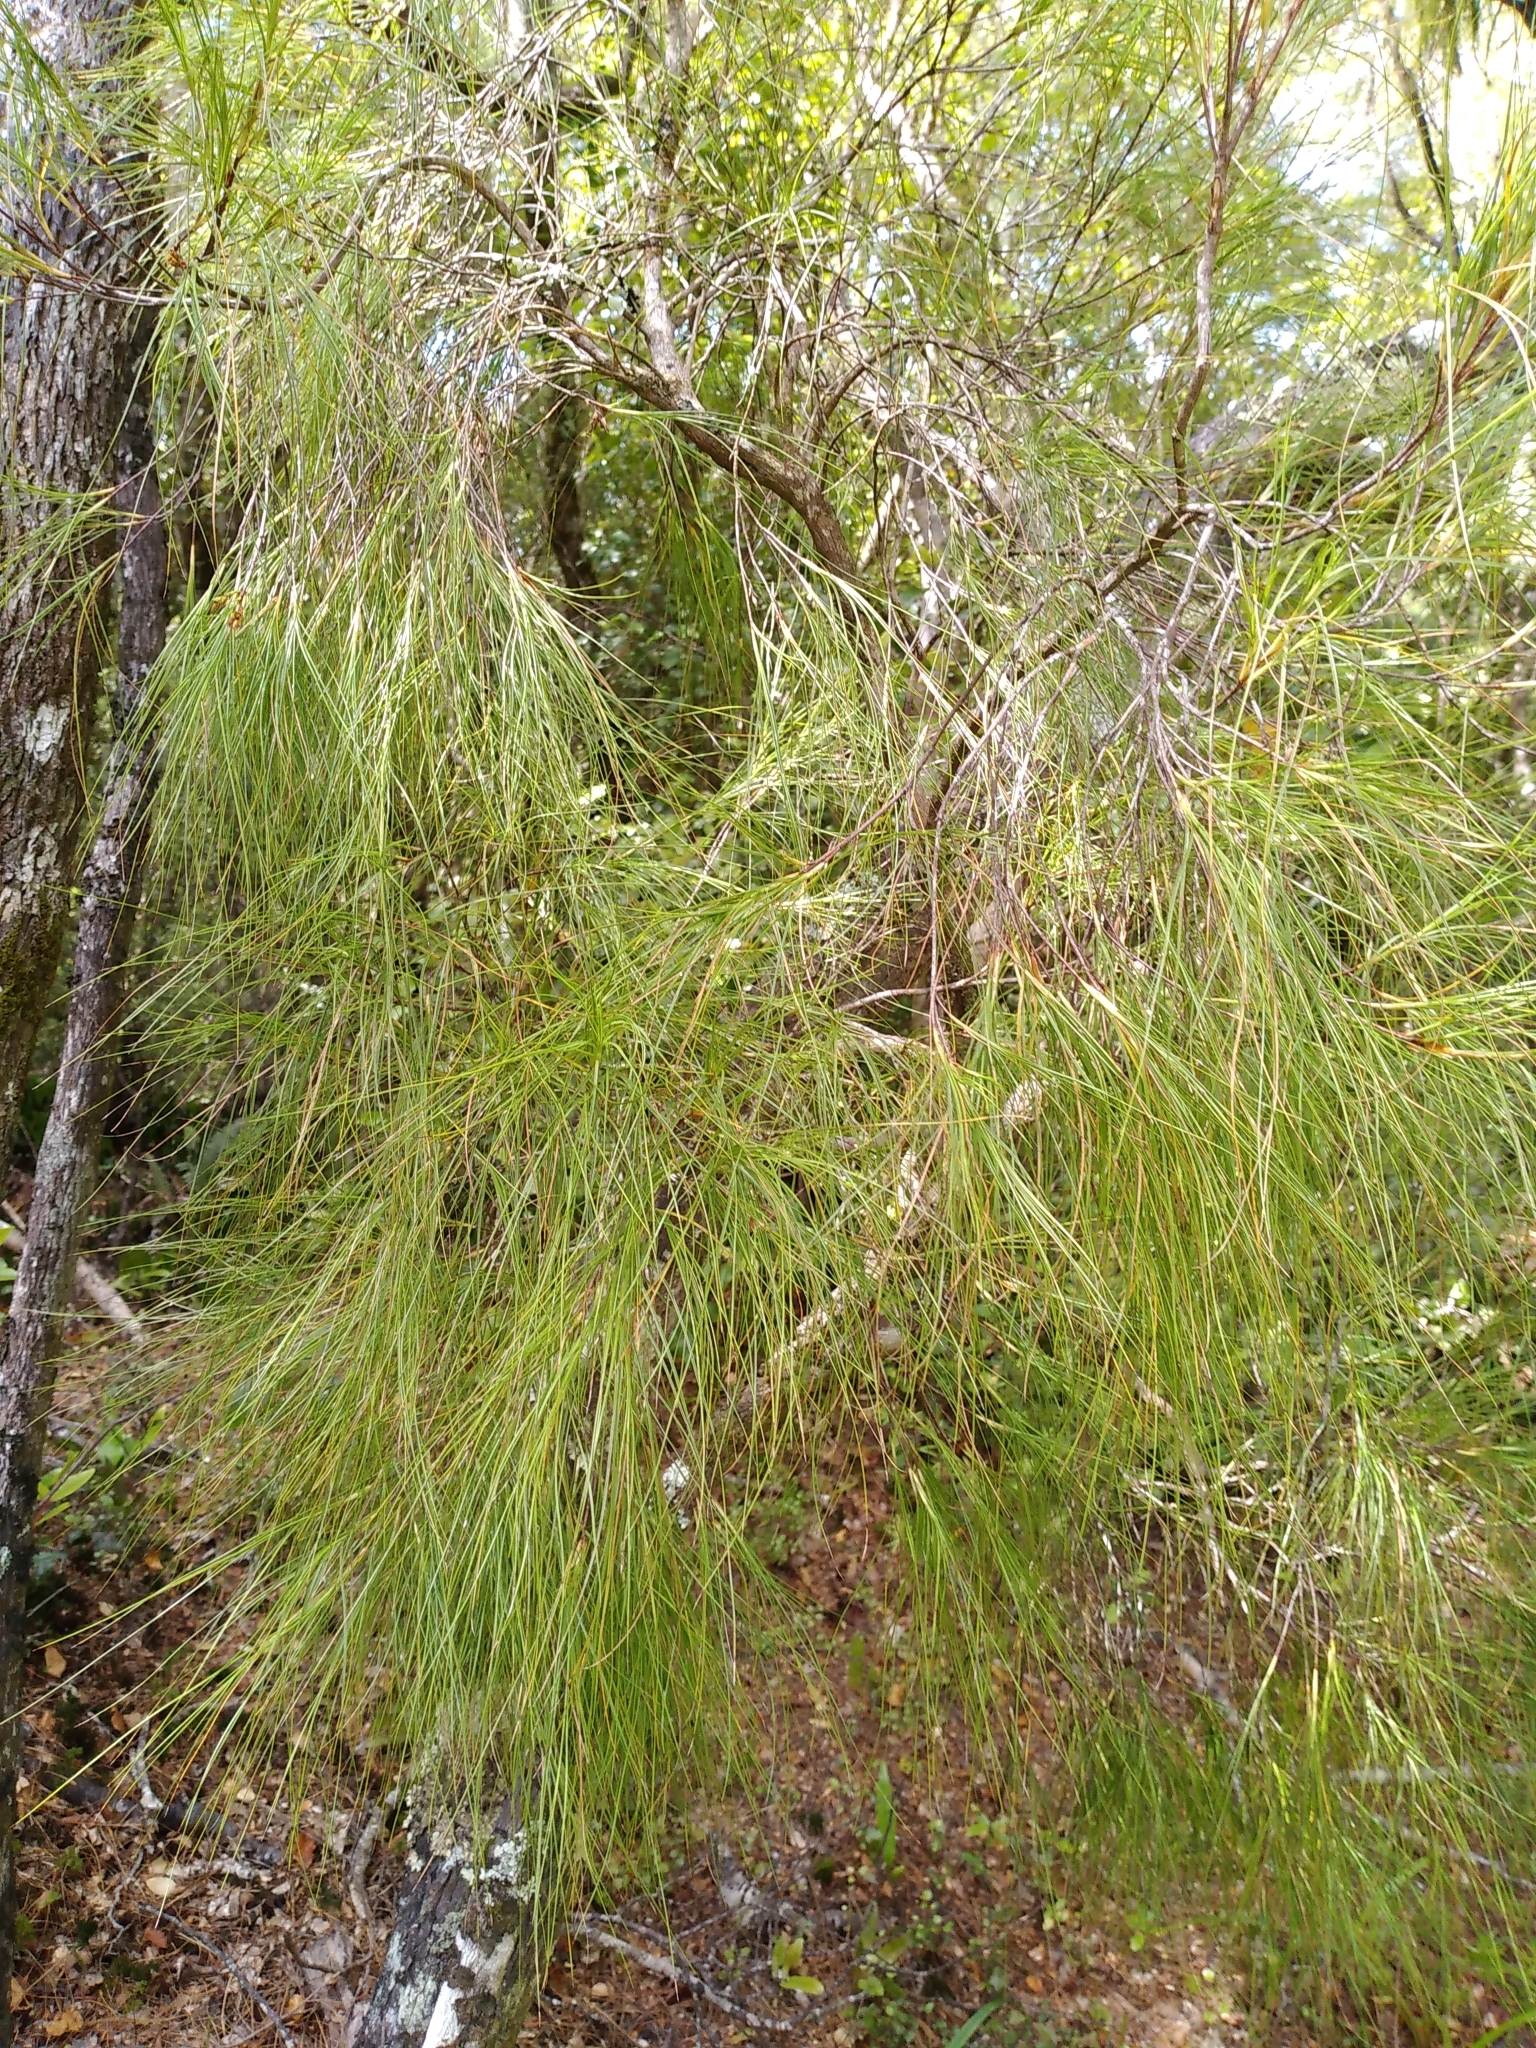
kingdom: Plantae
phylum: Tracheophyta
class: Magnoliopsida
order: Ericales
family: Ericaceae
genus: Dracophyllum
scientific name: Dracophyllum filifolium
